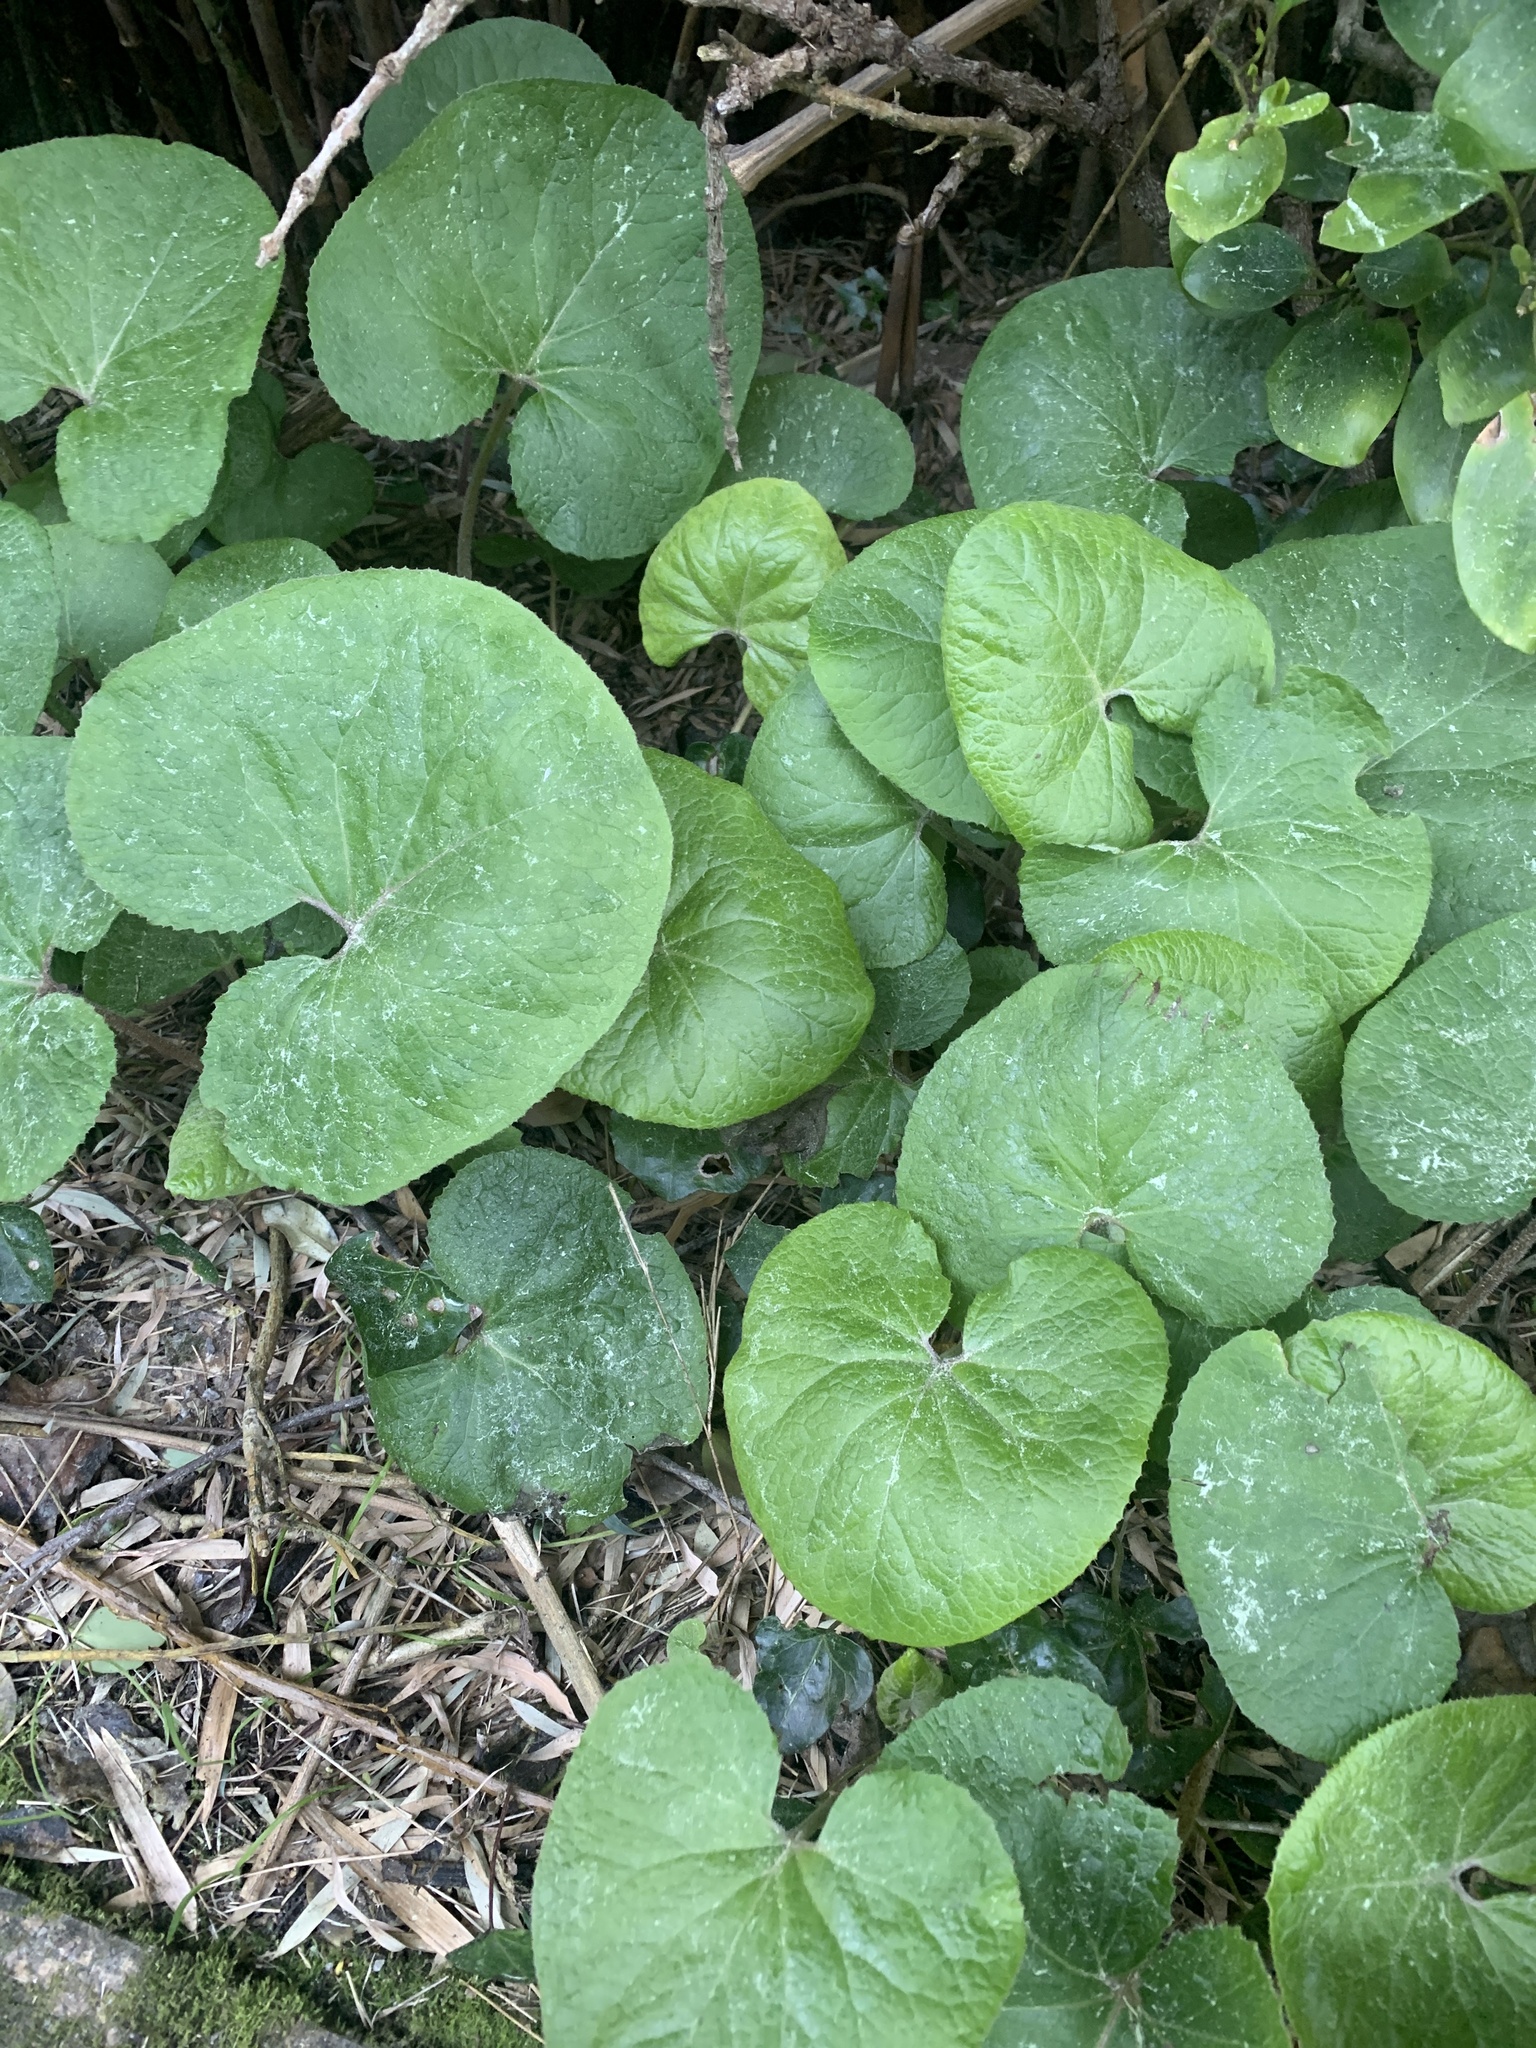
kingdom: Plantae
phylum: Tracheophyta
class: Magnoliopsida
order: Asterales
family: Asteraceae
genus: Petasites
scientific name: Petasites pyrenaicus
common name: Winter heliotrope
